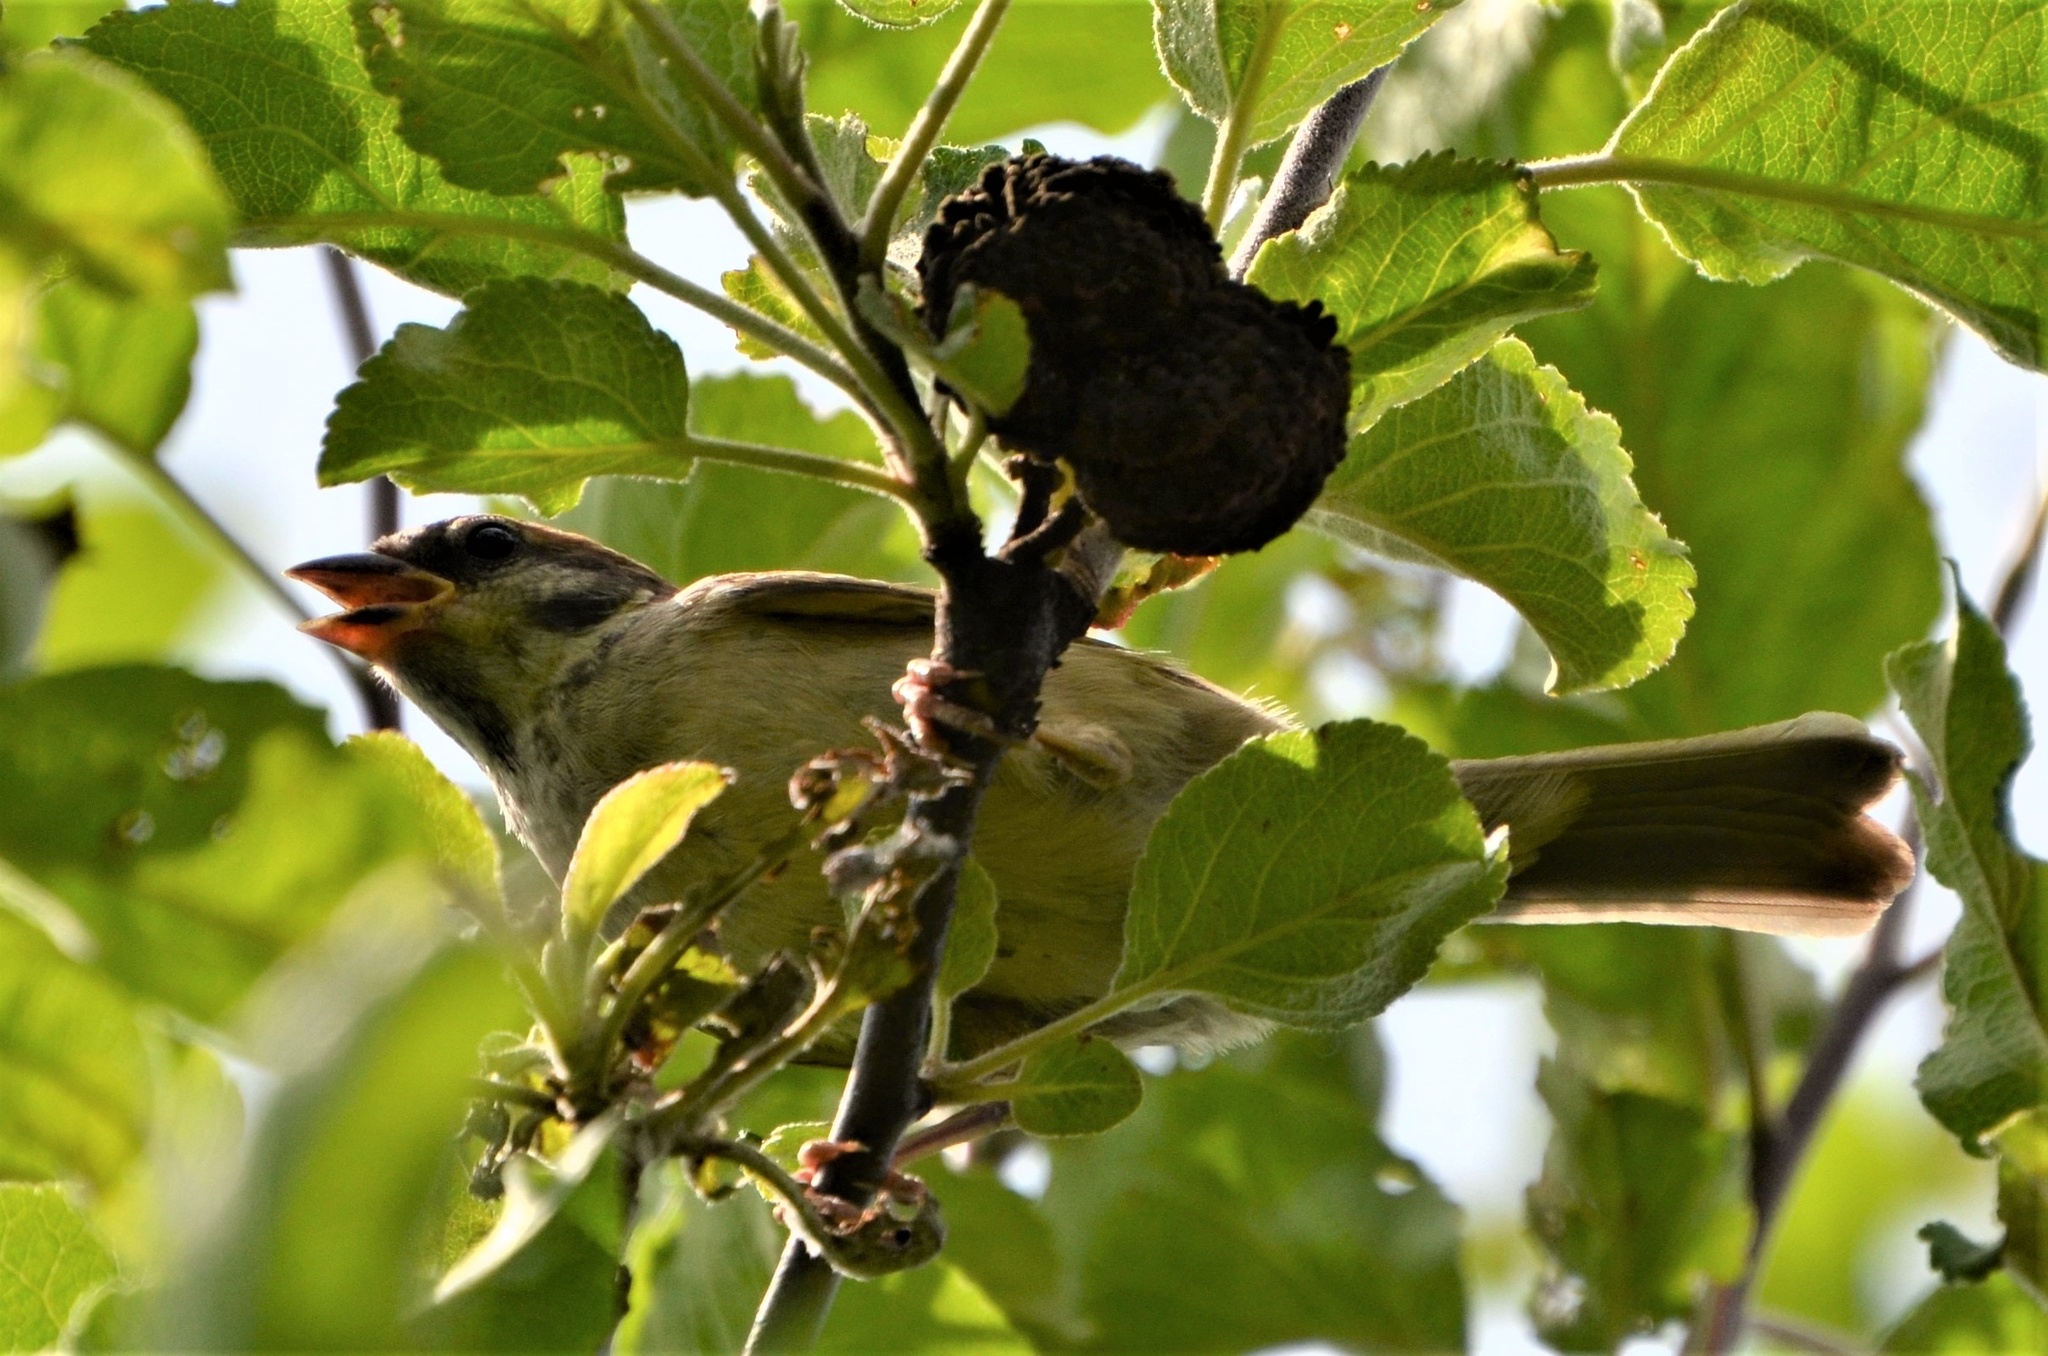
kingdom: Animalia
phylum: Chordata
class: Aves
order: Passeriformes
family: Passeridae
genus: Passer
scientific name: Passer montanus
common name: Eurasian tree sparrow
